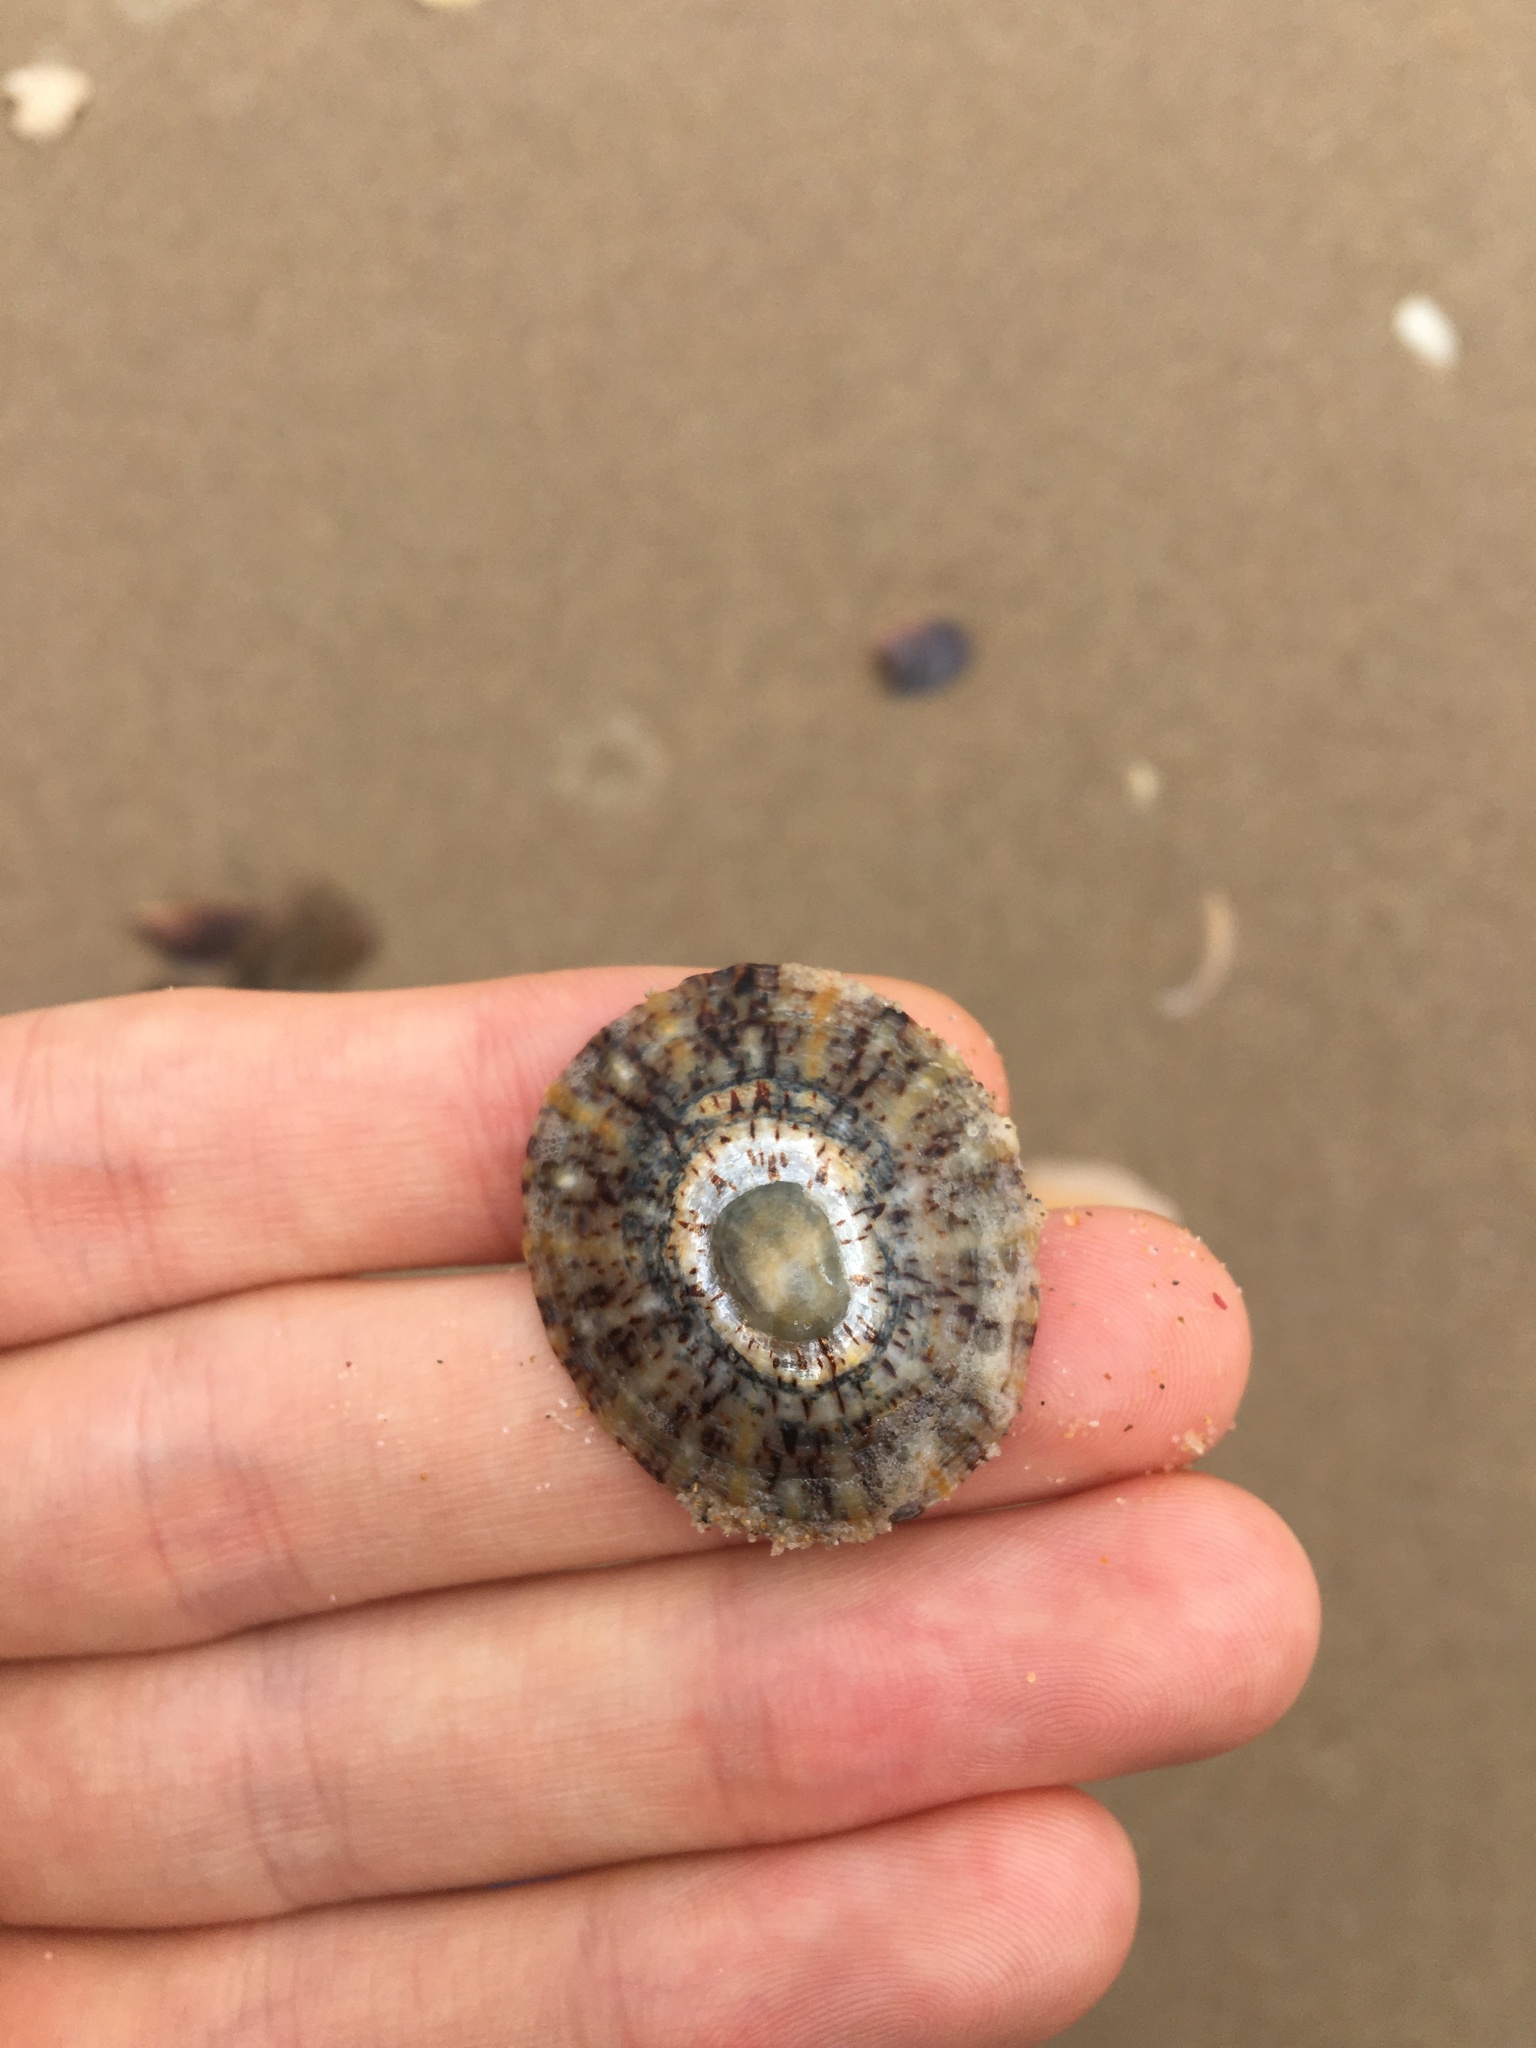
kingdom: Animalia
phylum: Mollusca
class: Gastropoda
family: Nacellidae
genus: Cellana
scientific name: Cellana tramoserica
